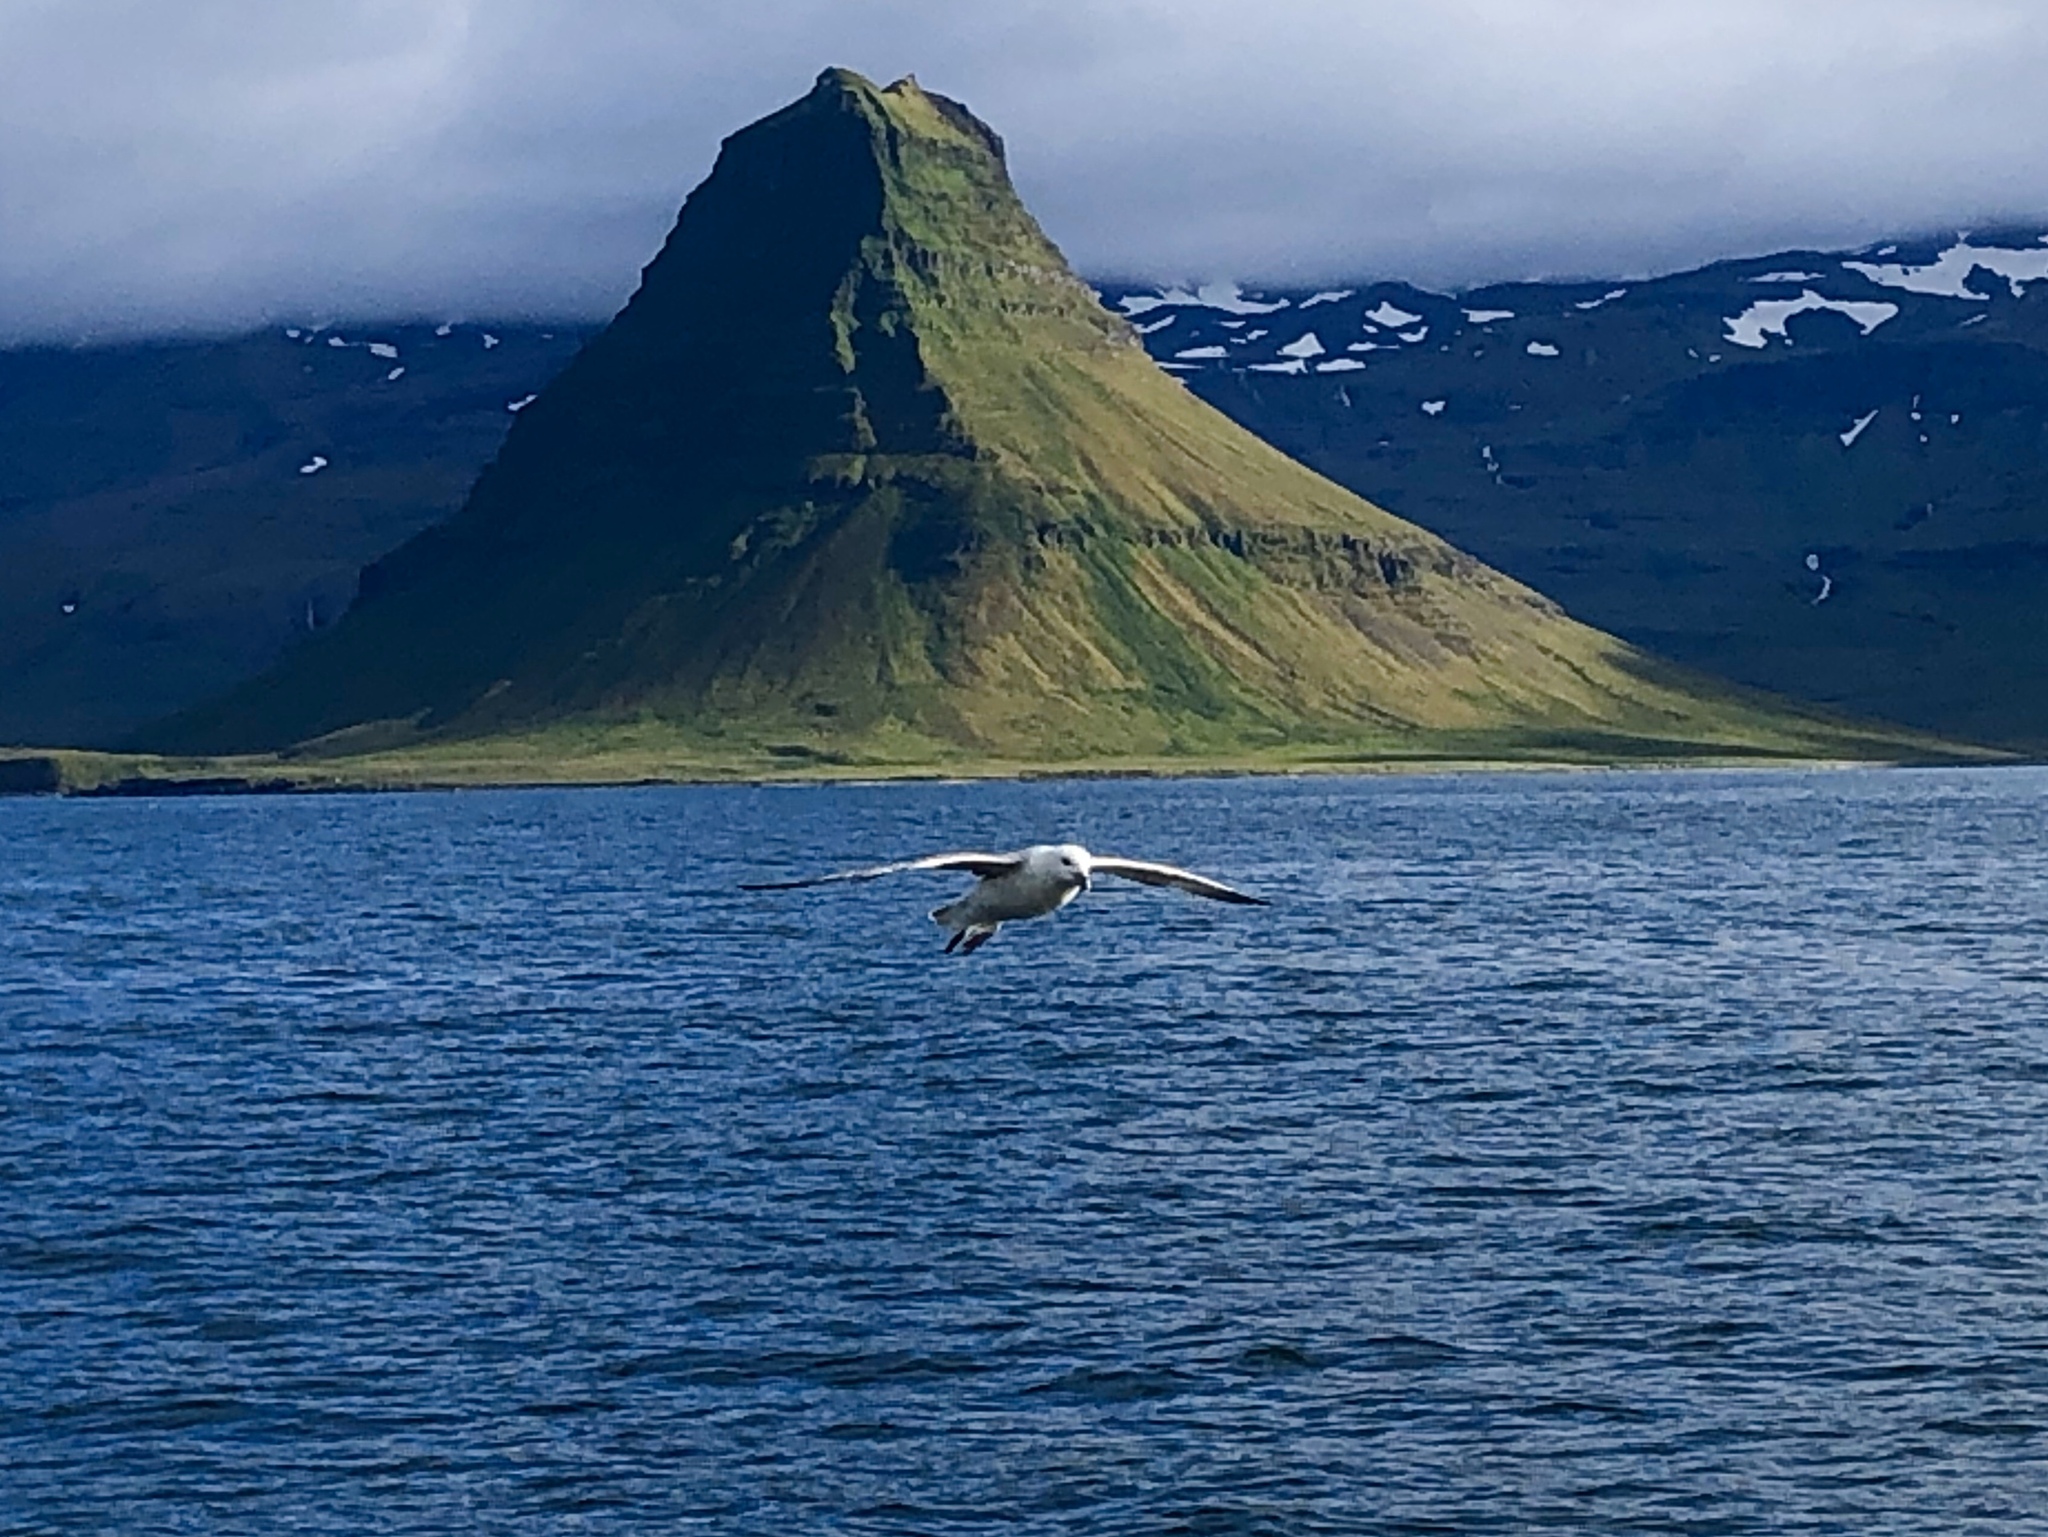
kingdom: Animalia
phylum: Chordata
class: Aves
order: Procellariiformes
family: Procellariidae
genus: Fulmarus
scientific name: Fulmarus glacialis
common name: Northern fulmar
